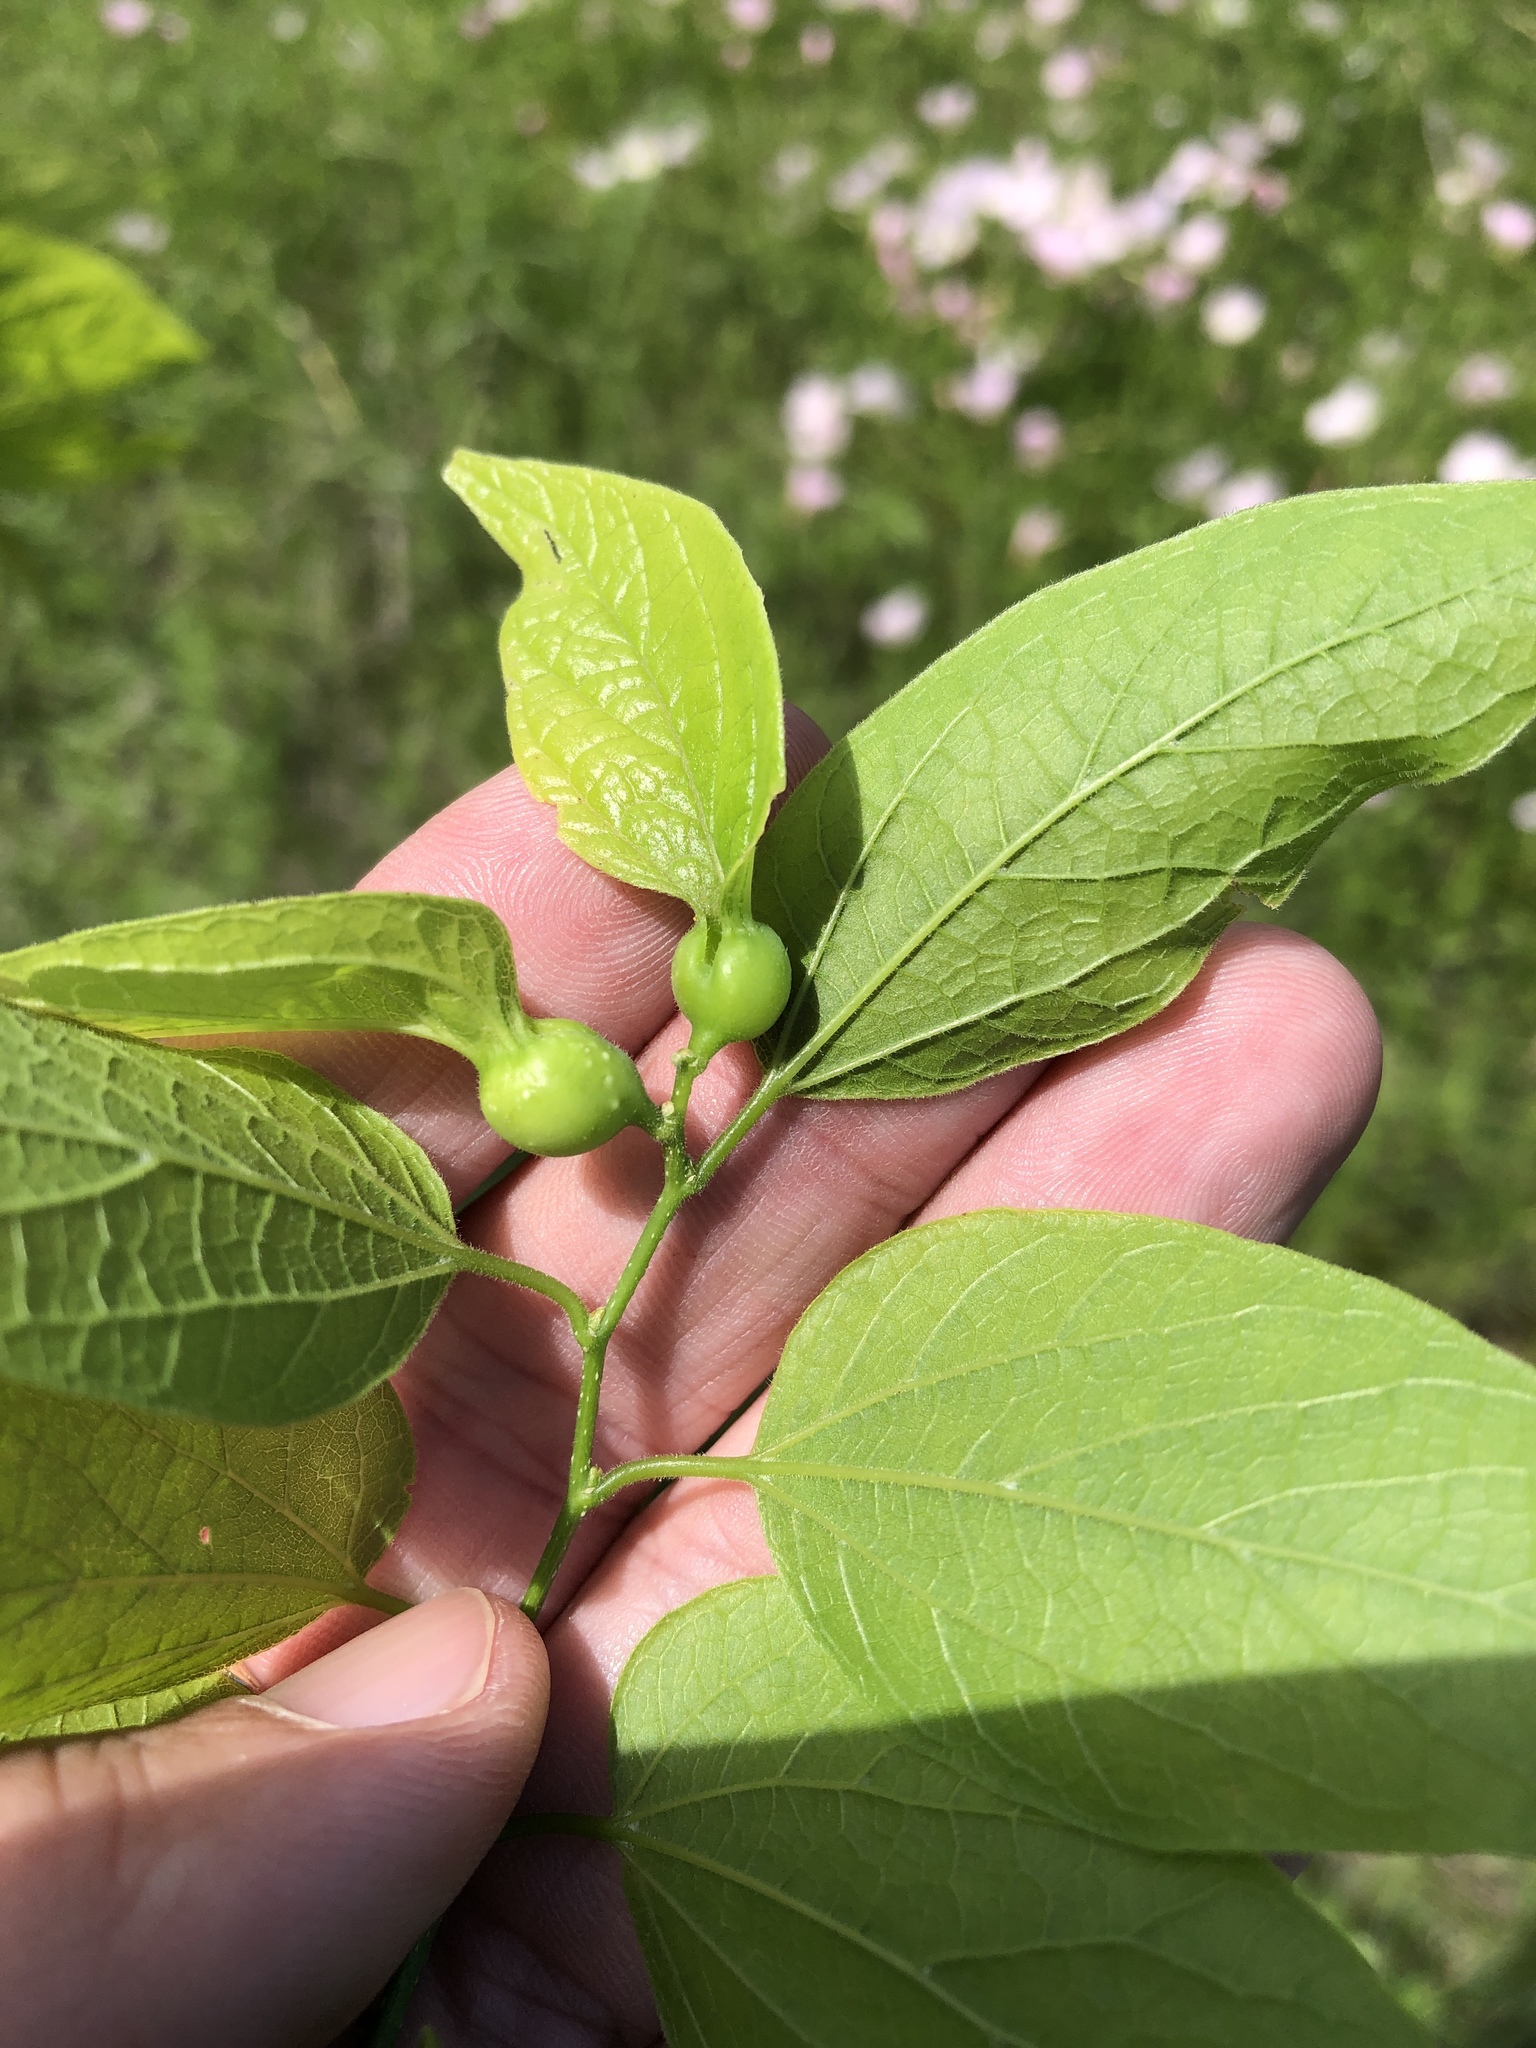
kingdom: Animalia
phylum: Arthropoda
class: Insecta
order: Hemiptera
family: Aphalaridae
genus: Pachypsylla
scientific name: Pachypsylla venusta
